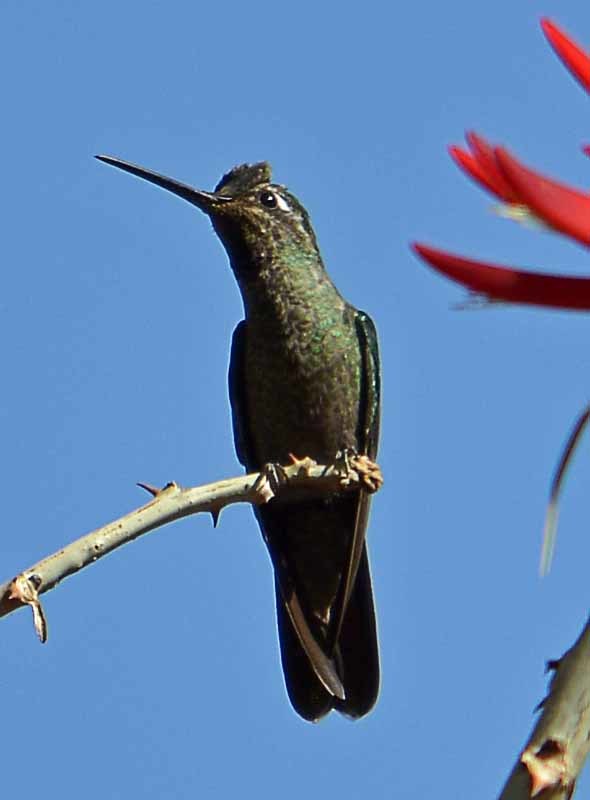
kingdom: Animalia
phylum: Chordata
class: Aves
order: Apodiformes
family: Trochilidae
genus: Eugenes
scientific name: Eugenes fulgens
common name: Magnificent hummingbird
